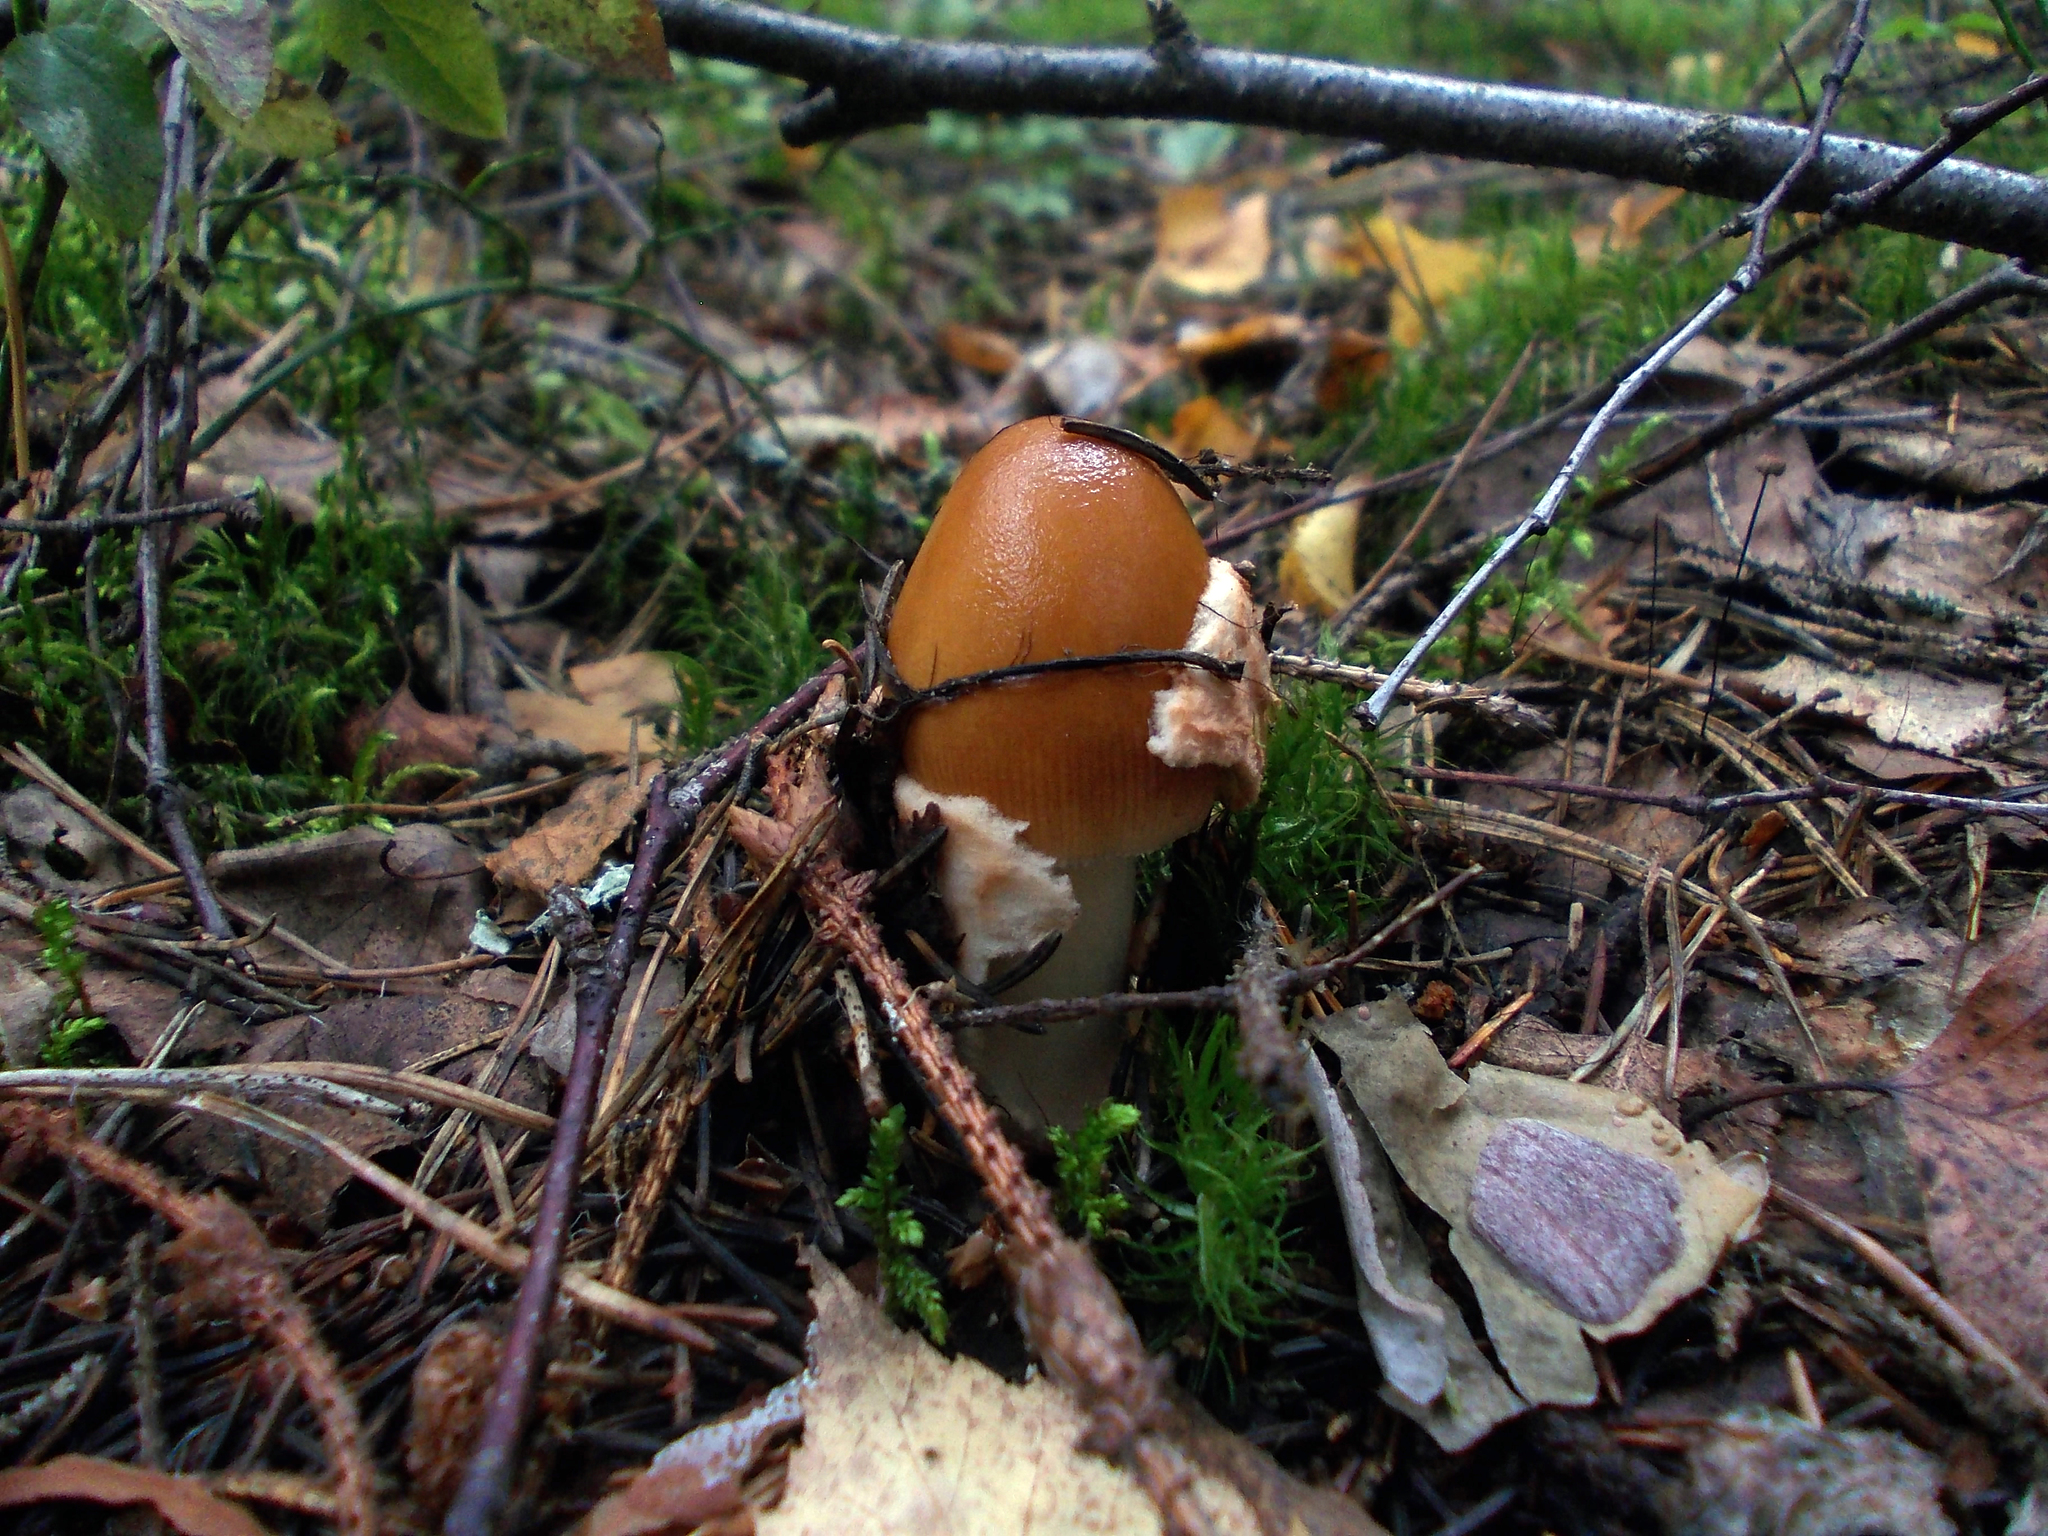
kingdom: Fungi
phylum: Basidiomycota
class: Agaricomycetes
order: Agaricales
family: Amanitaceae
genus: Amanita
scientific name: Amanita fulva
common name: Tawny grisette
